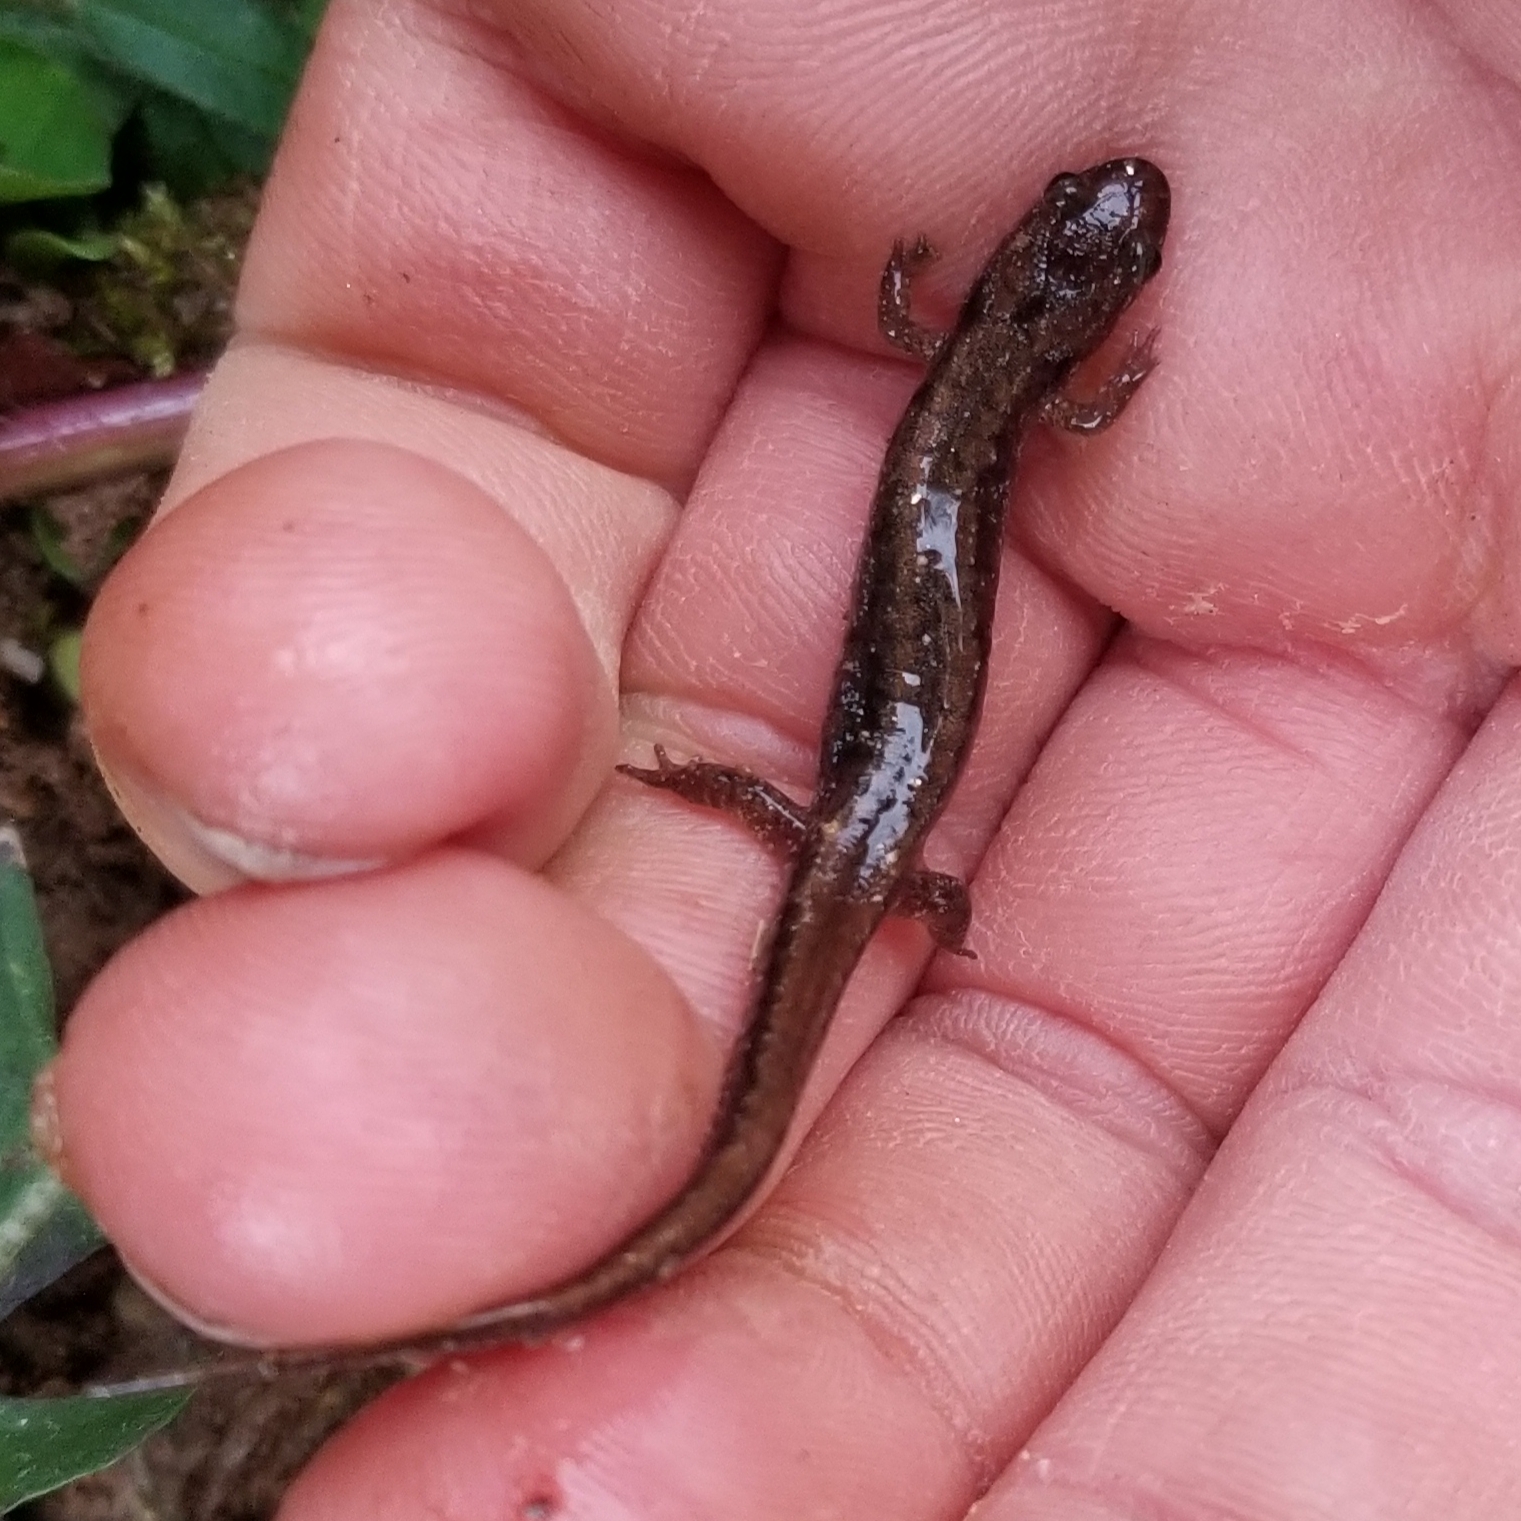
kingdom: Animalia
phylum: Chordata
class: Amphibia
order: Caudata
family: Plethodontidae
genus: Desmognathus
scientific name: Desmognathus carolinensis
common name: Carolina mountain dusky salamander
